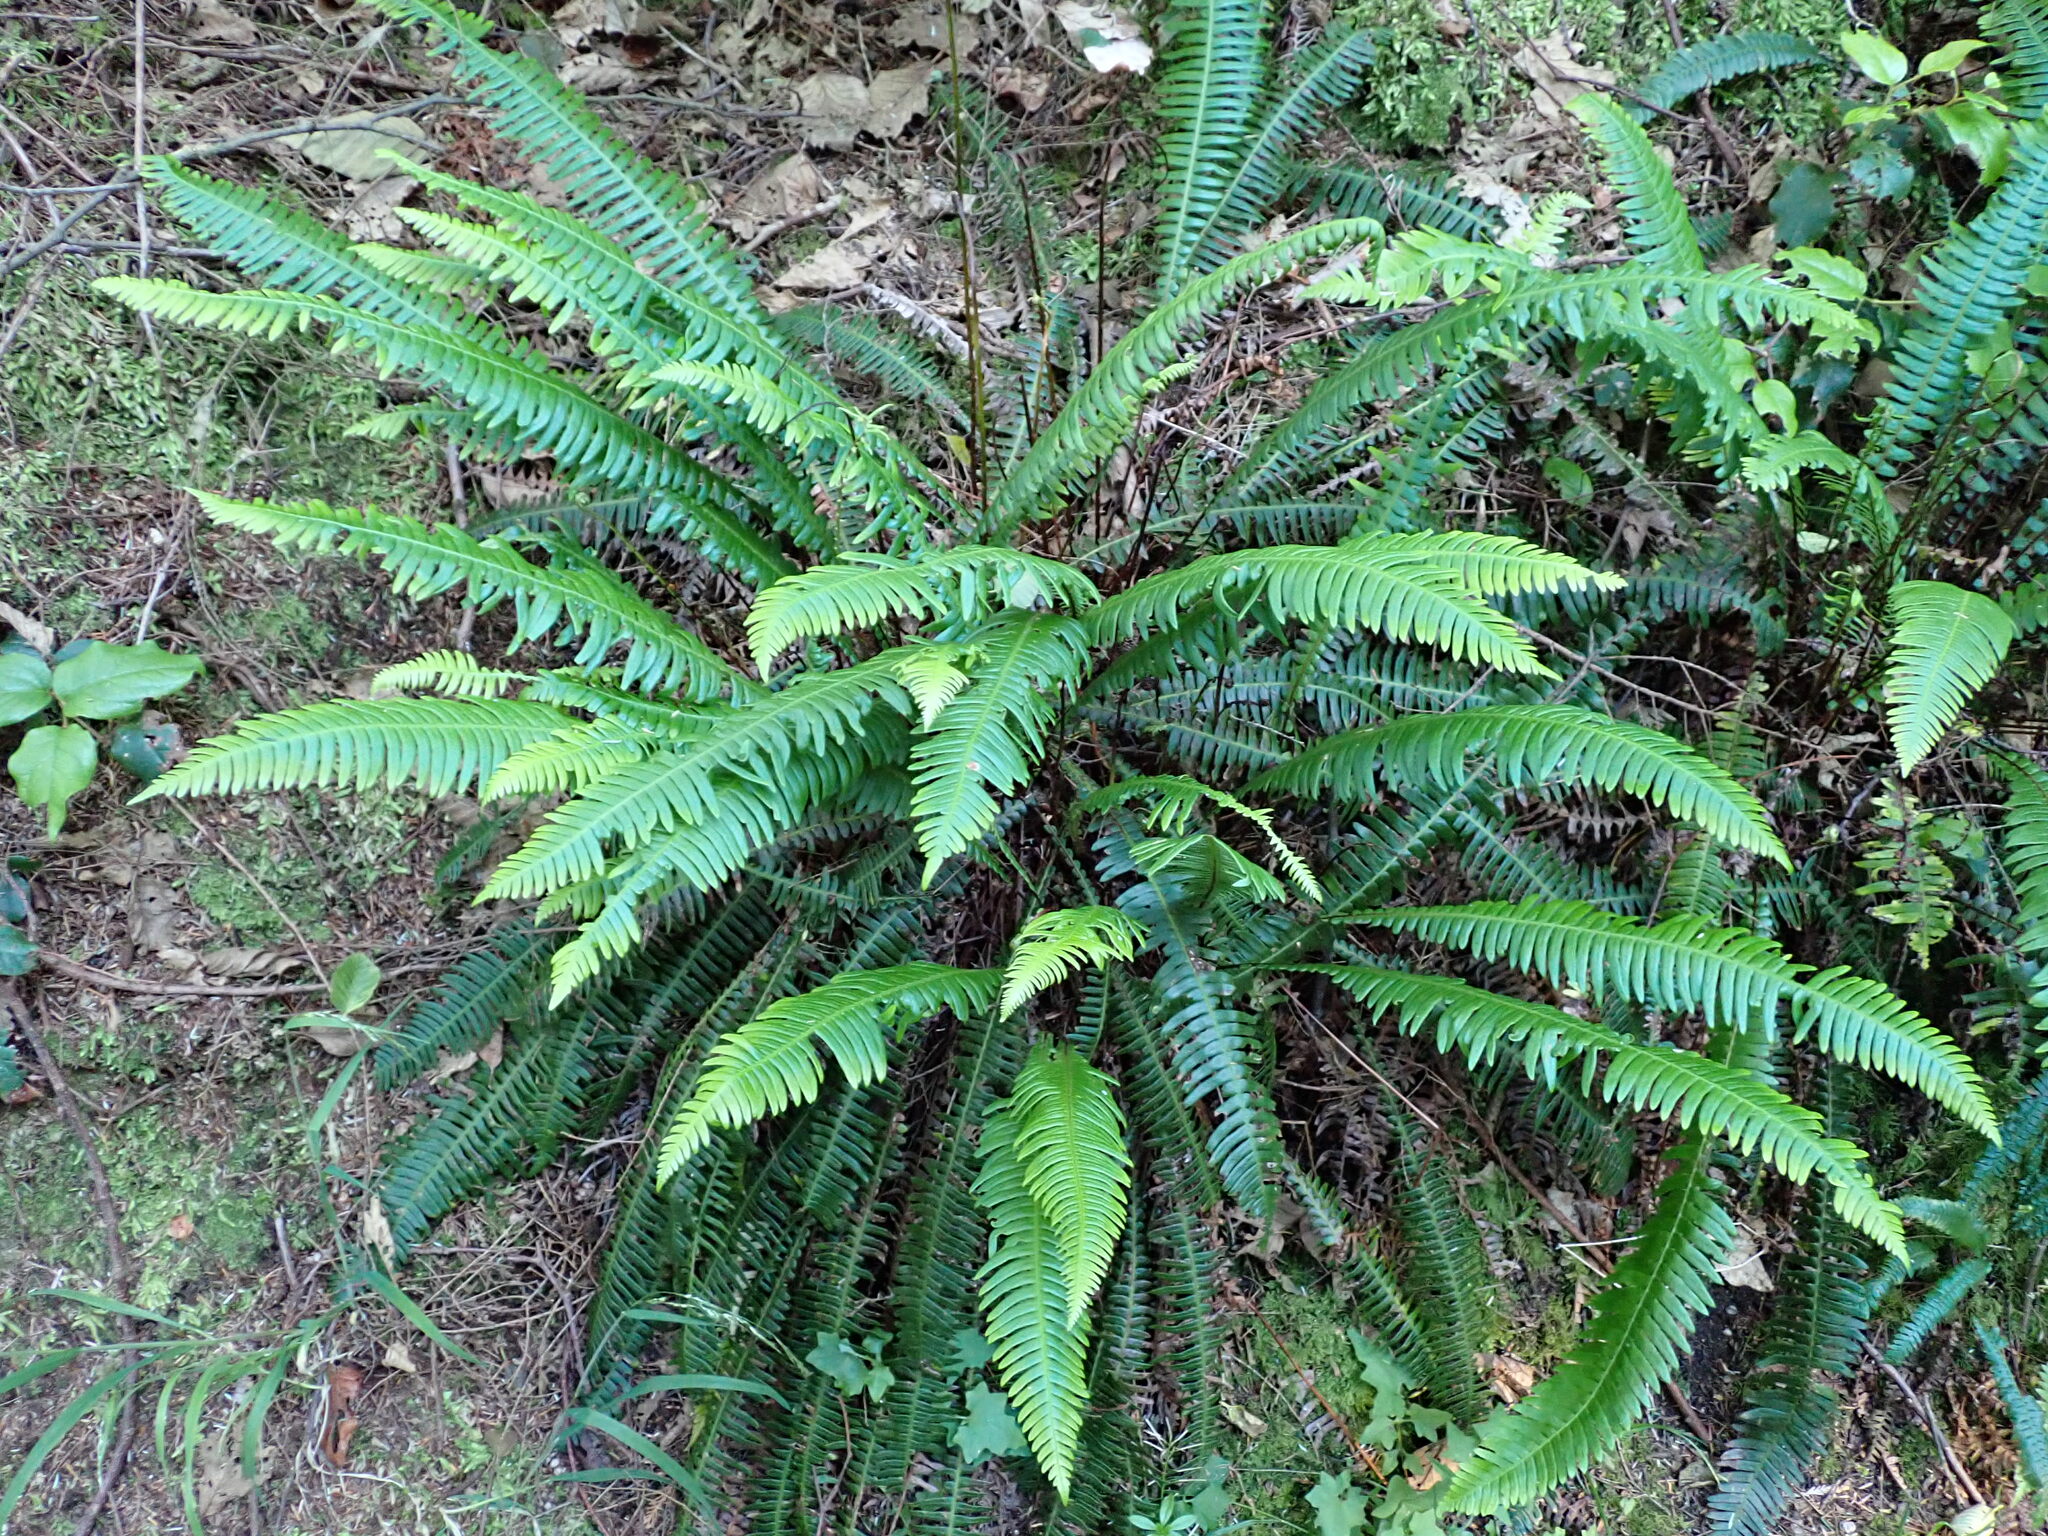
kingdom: Plantae
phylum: Tracheophyta
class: Polypodiopsida
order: Polypodiales
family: Blechnaceae
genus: Struthiopteris
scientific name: Struthiopteris spicant
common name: Deer fern
